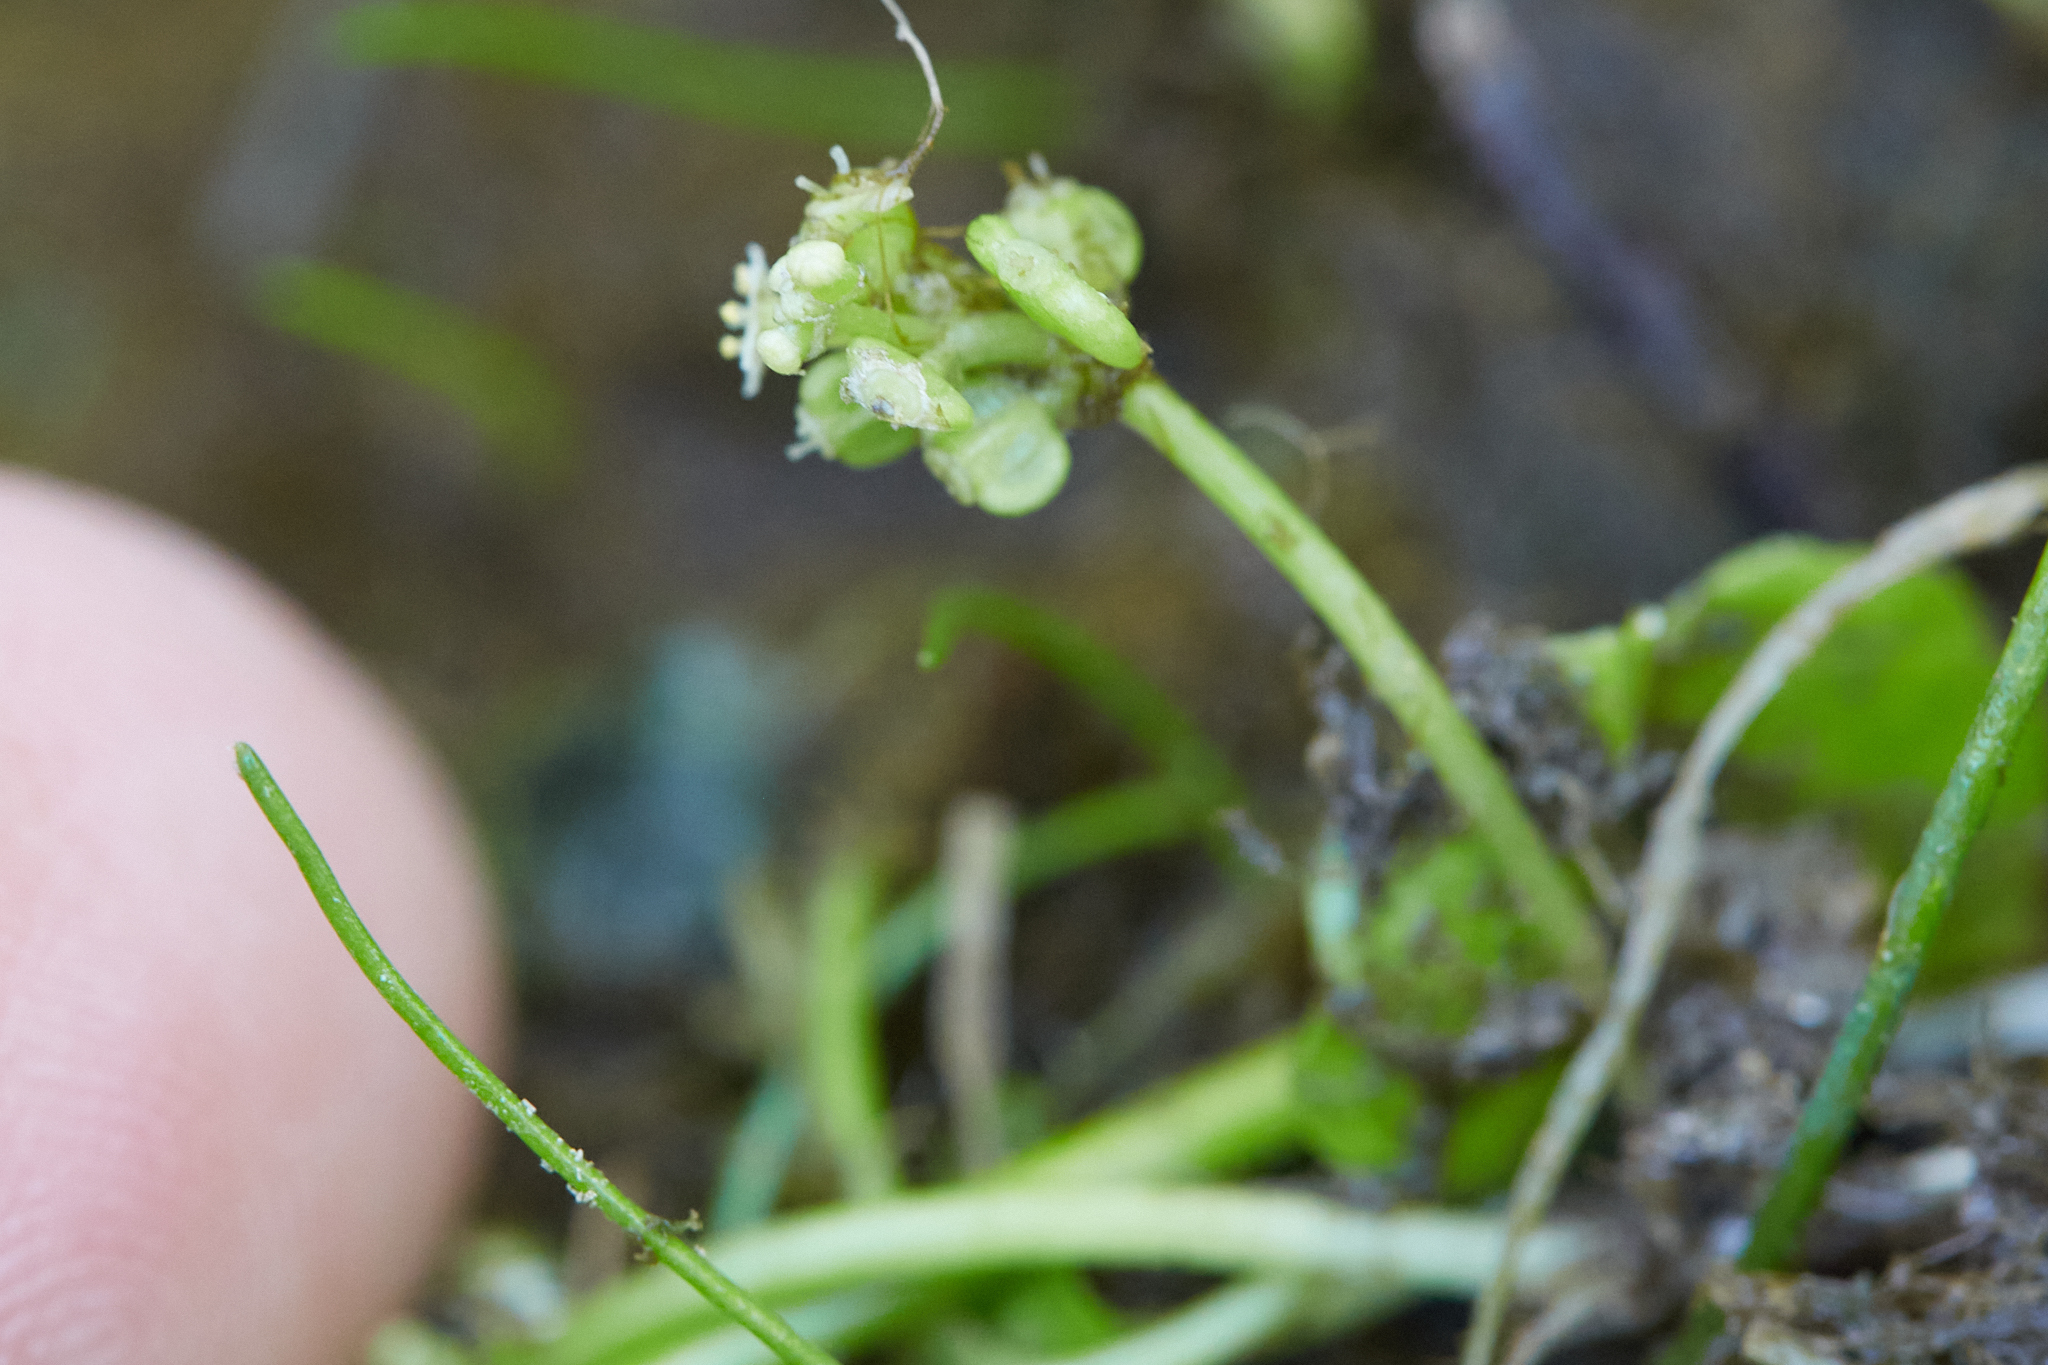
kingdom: Plantae
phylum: Tracheophyta
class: Magnoliopsida
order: Apiales
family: Araliaceae
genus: Hydrocotyle
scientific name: Hydrocotyle verticillata
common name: Whorled marshpennywort
